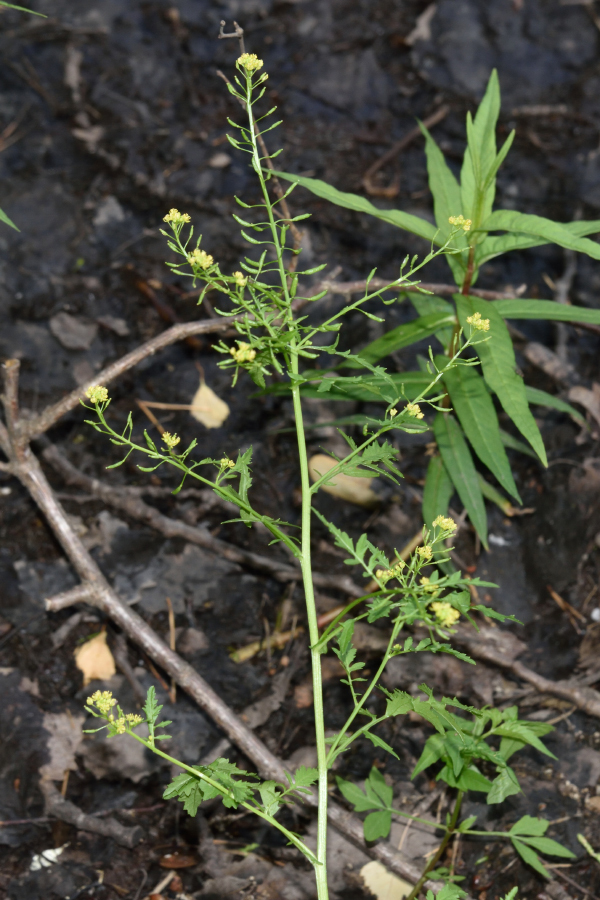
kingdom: Plantae
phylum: Tracheophyta
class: Magnoliopsida
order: Brassicales
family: Brassicaceae
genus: Rorippa
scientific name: Rorippa palustris
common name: Marsh yellow-cress
